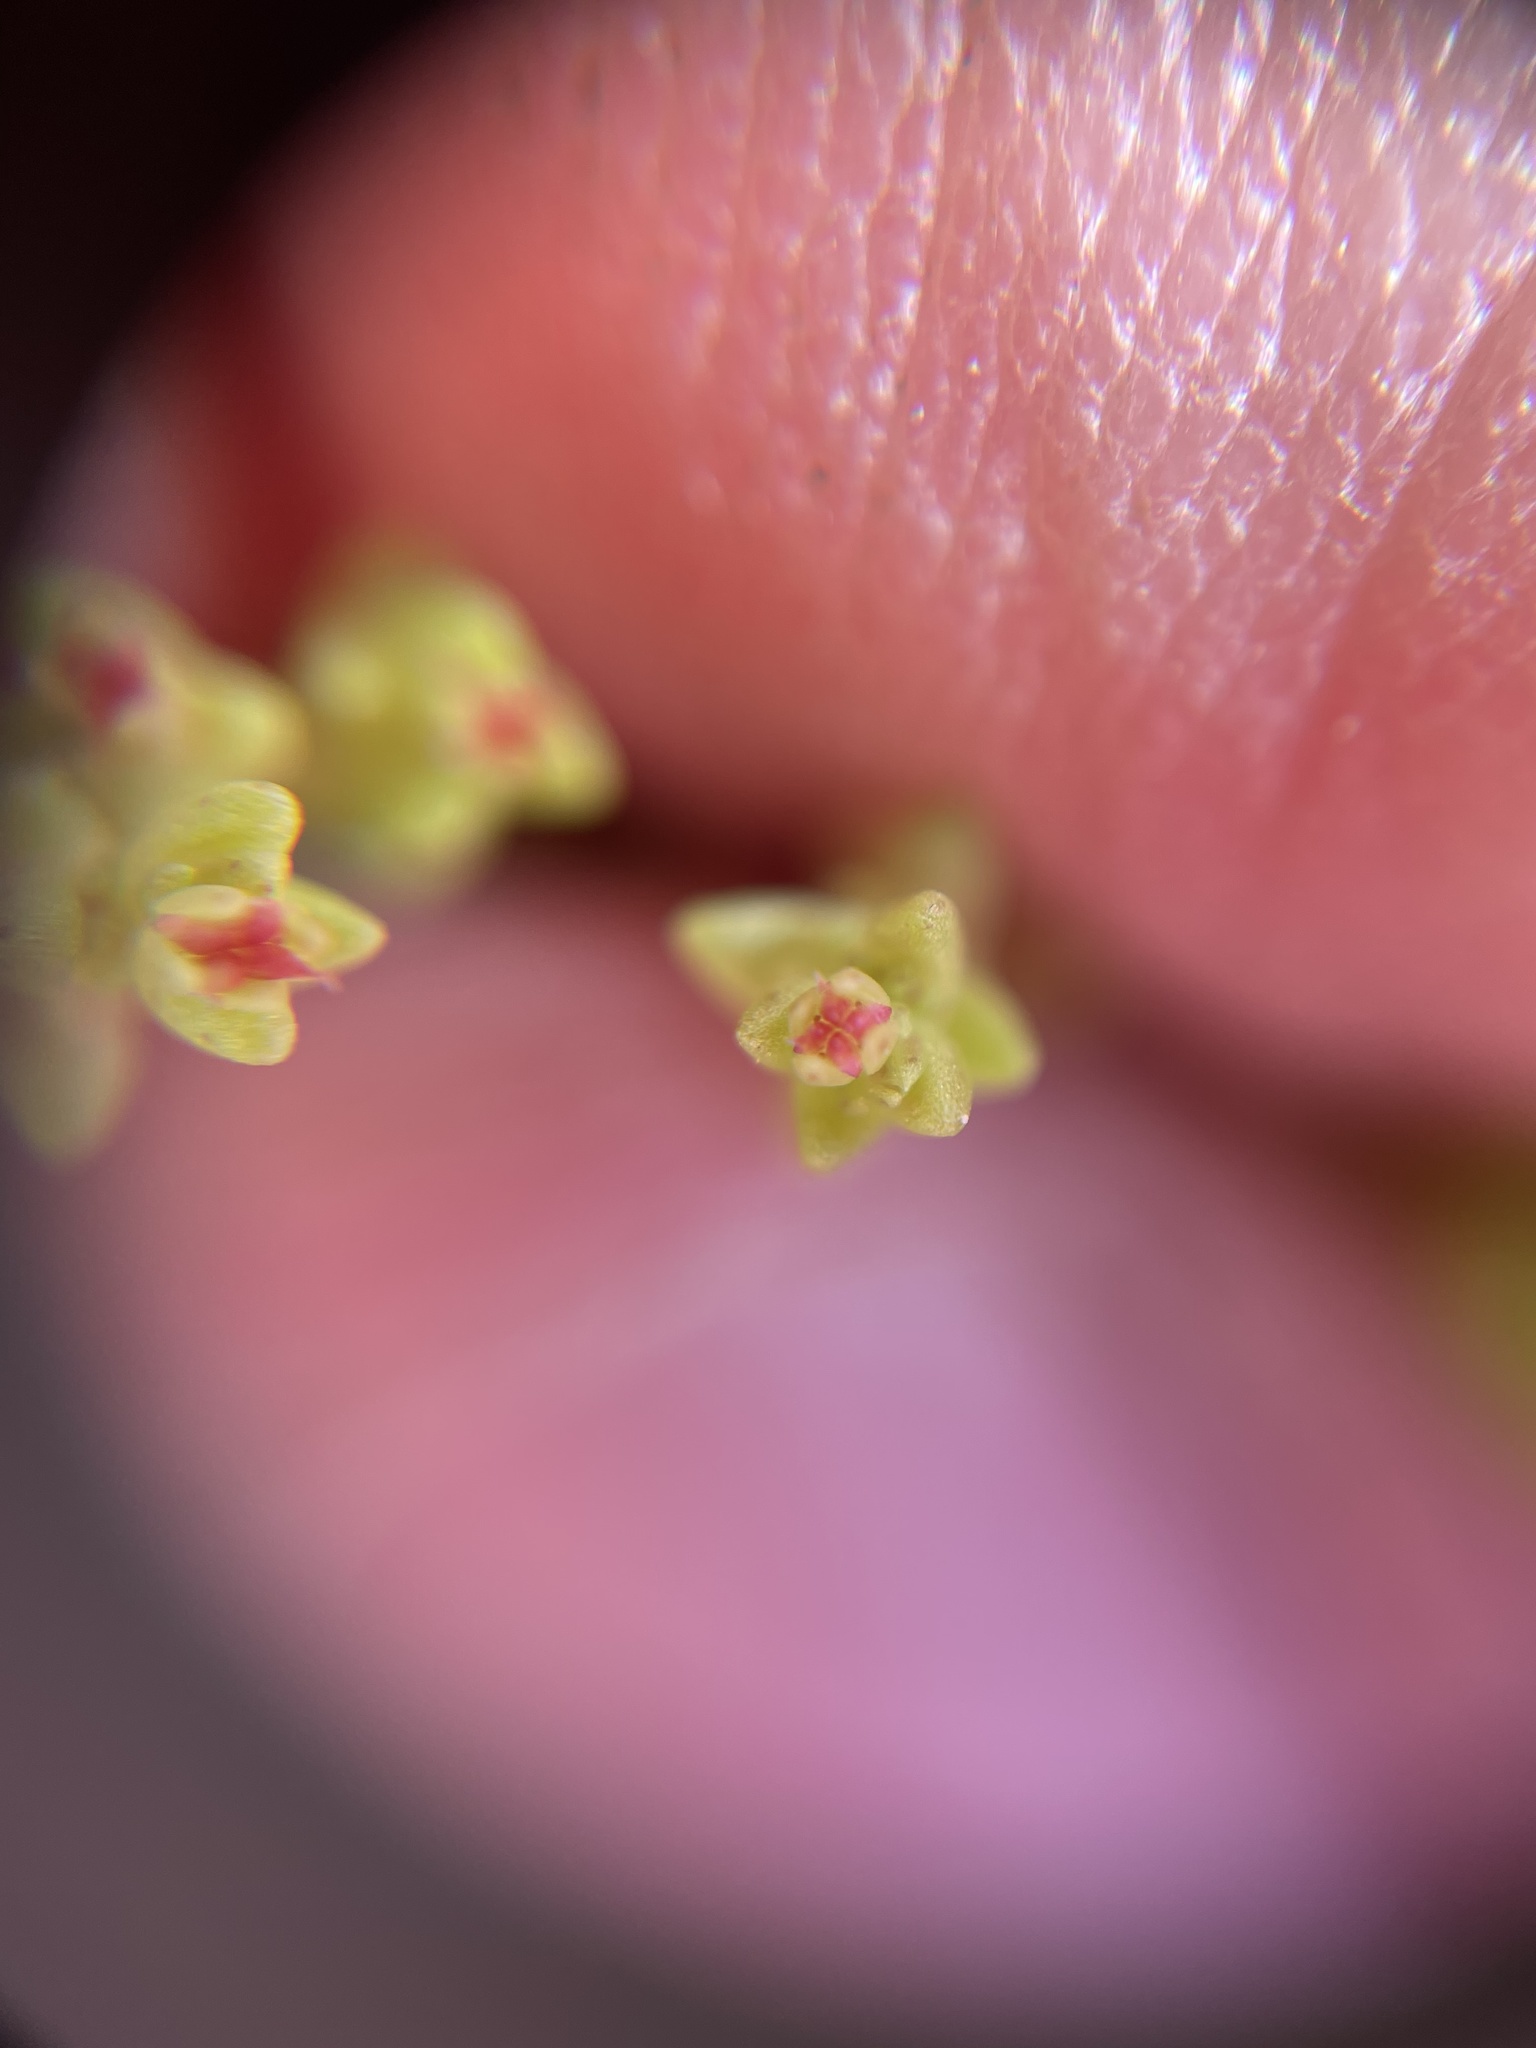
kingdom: Plantae
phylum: Tracheophyta
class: Magnoliopsida
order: Saxifragales
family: Crassulaceae
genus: Crassula
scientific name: Crassula connata
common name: Erect pygmyweed
